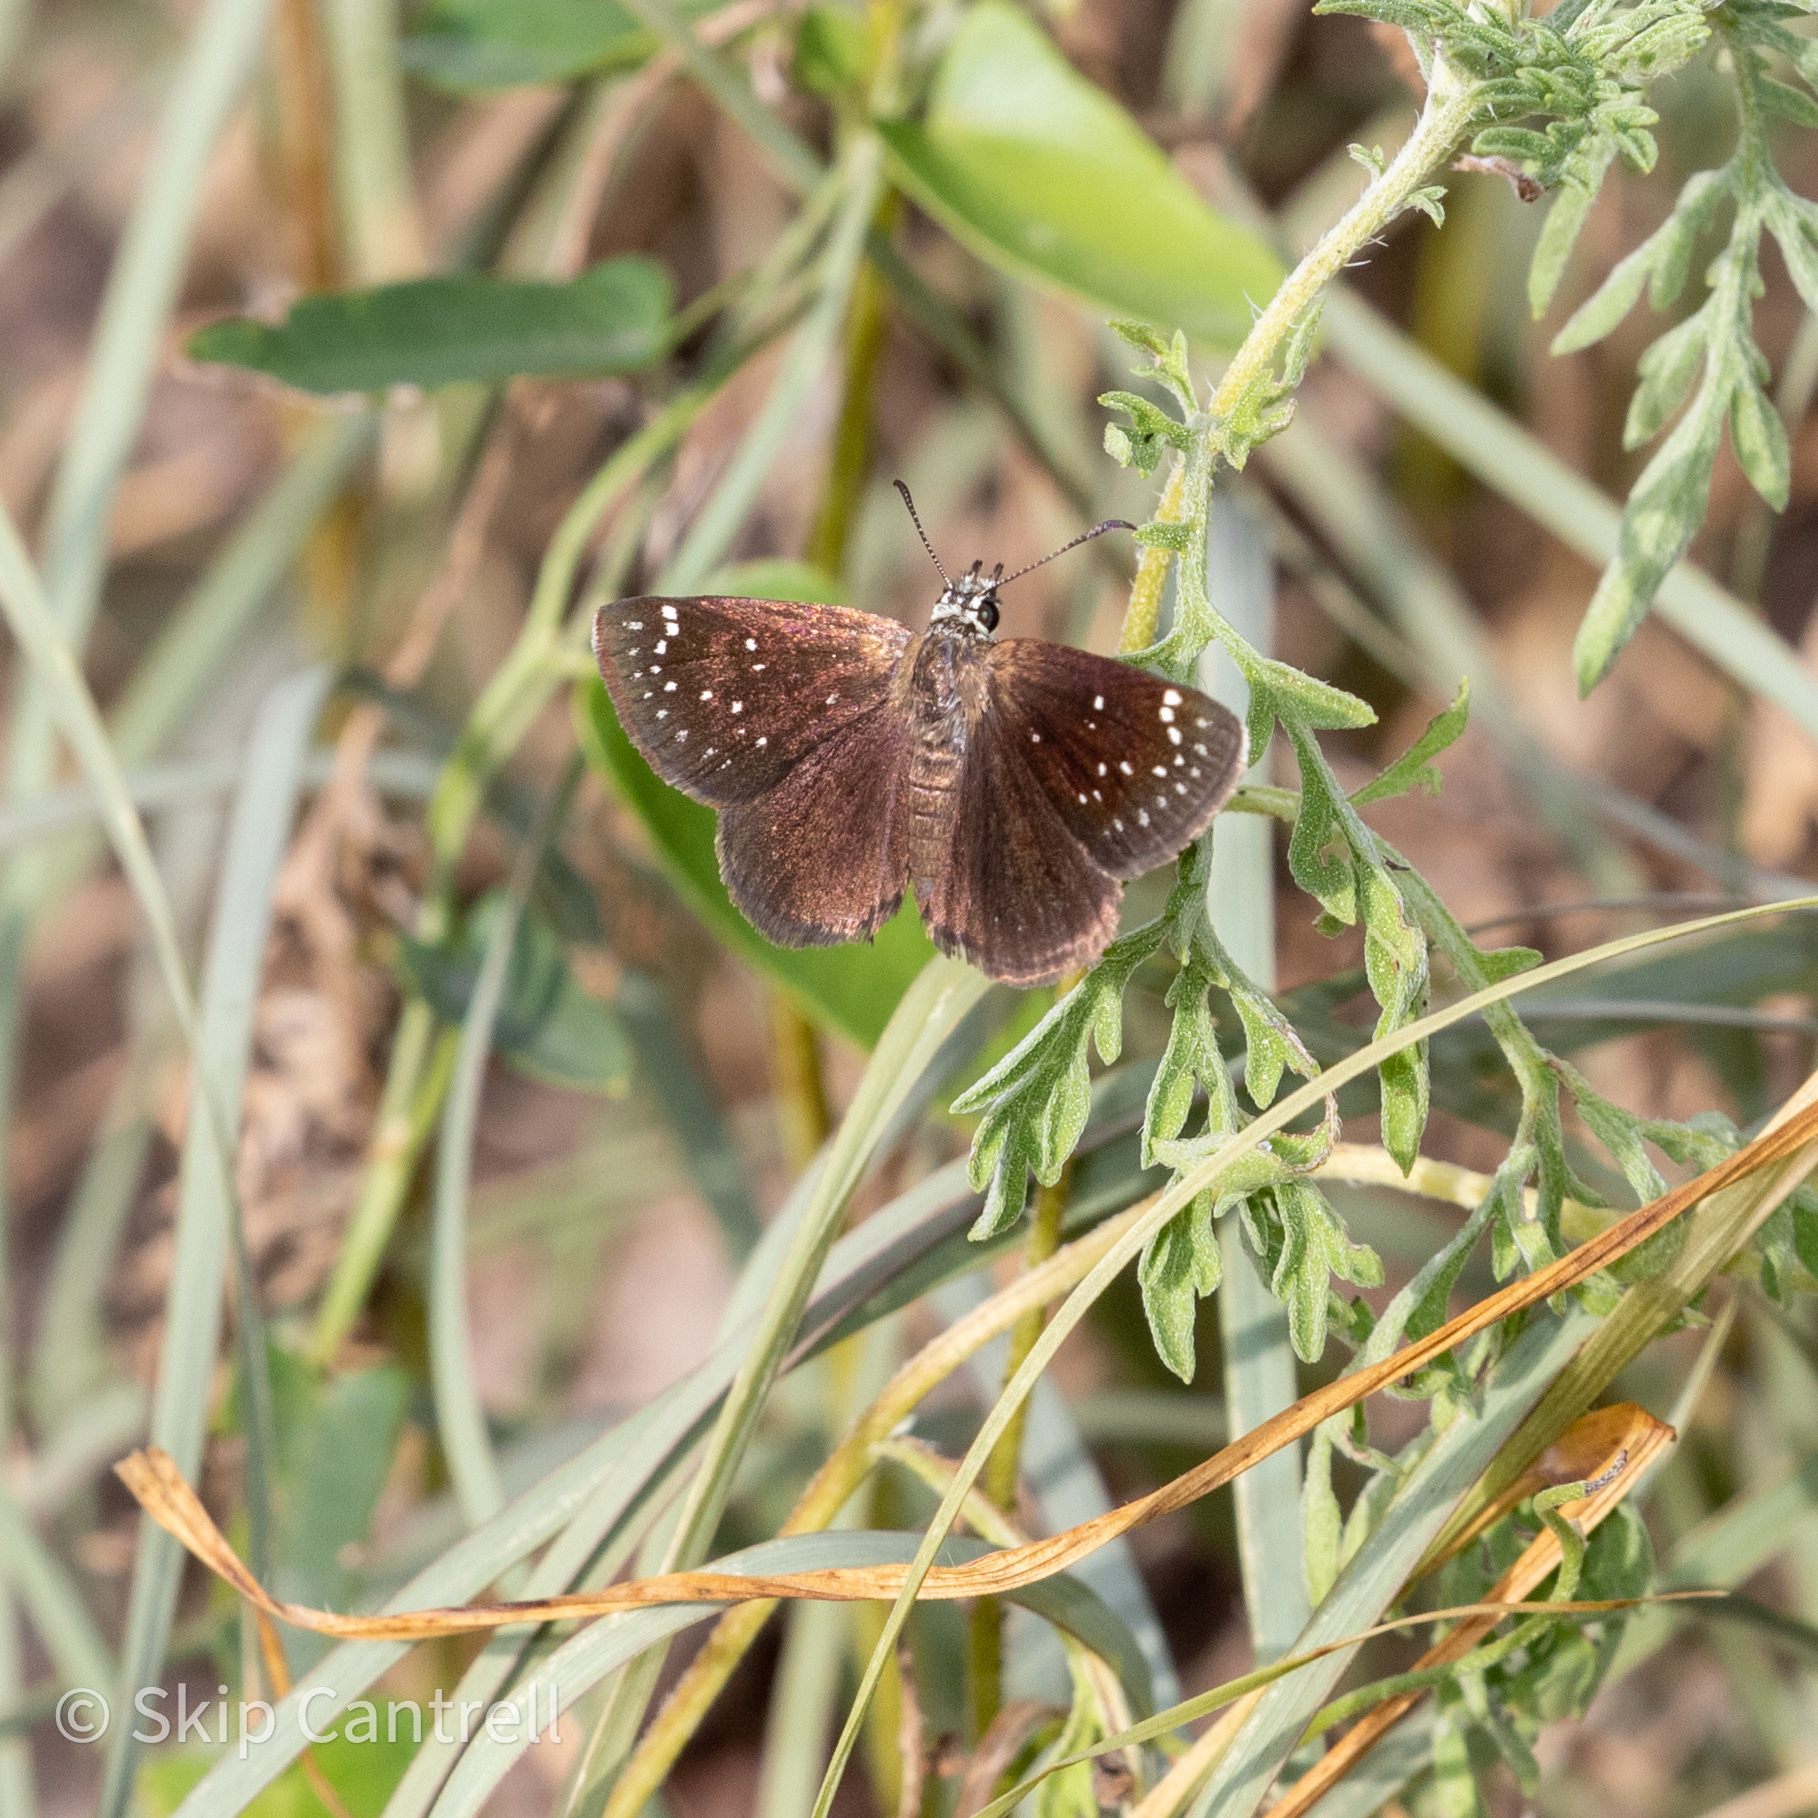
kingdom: Animalia
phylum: Arthropoda
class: Insecta
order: Lepidoptera
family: Hesperiidae
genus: Pholisora
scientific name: Pholisora catullus
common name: Common sootywing
